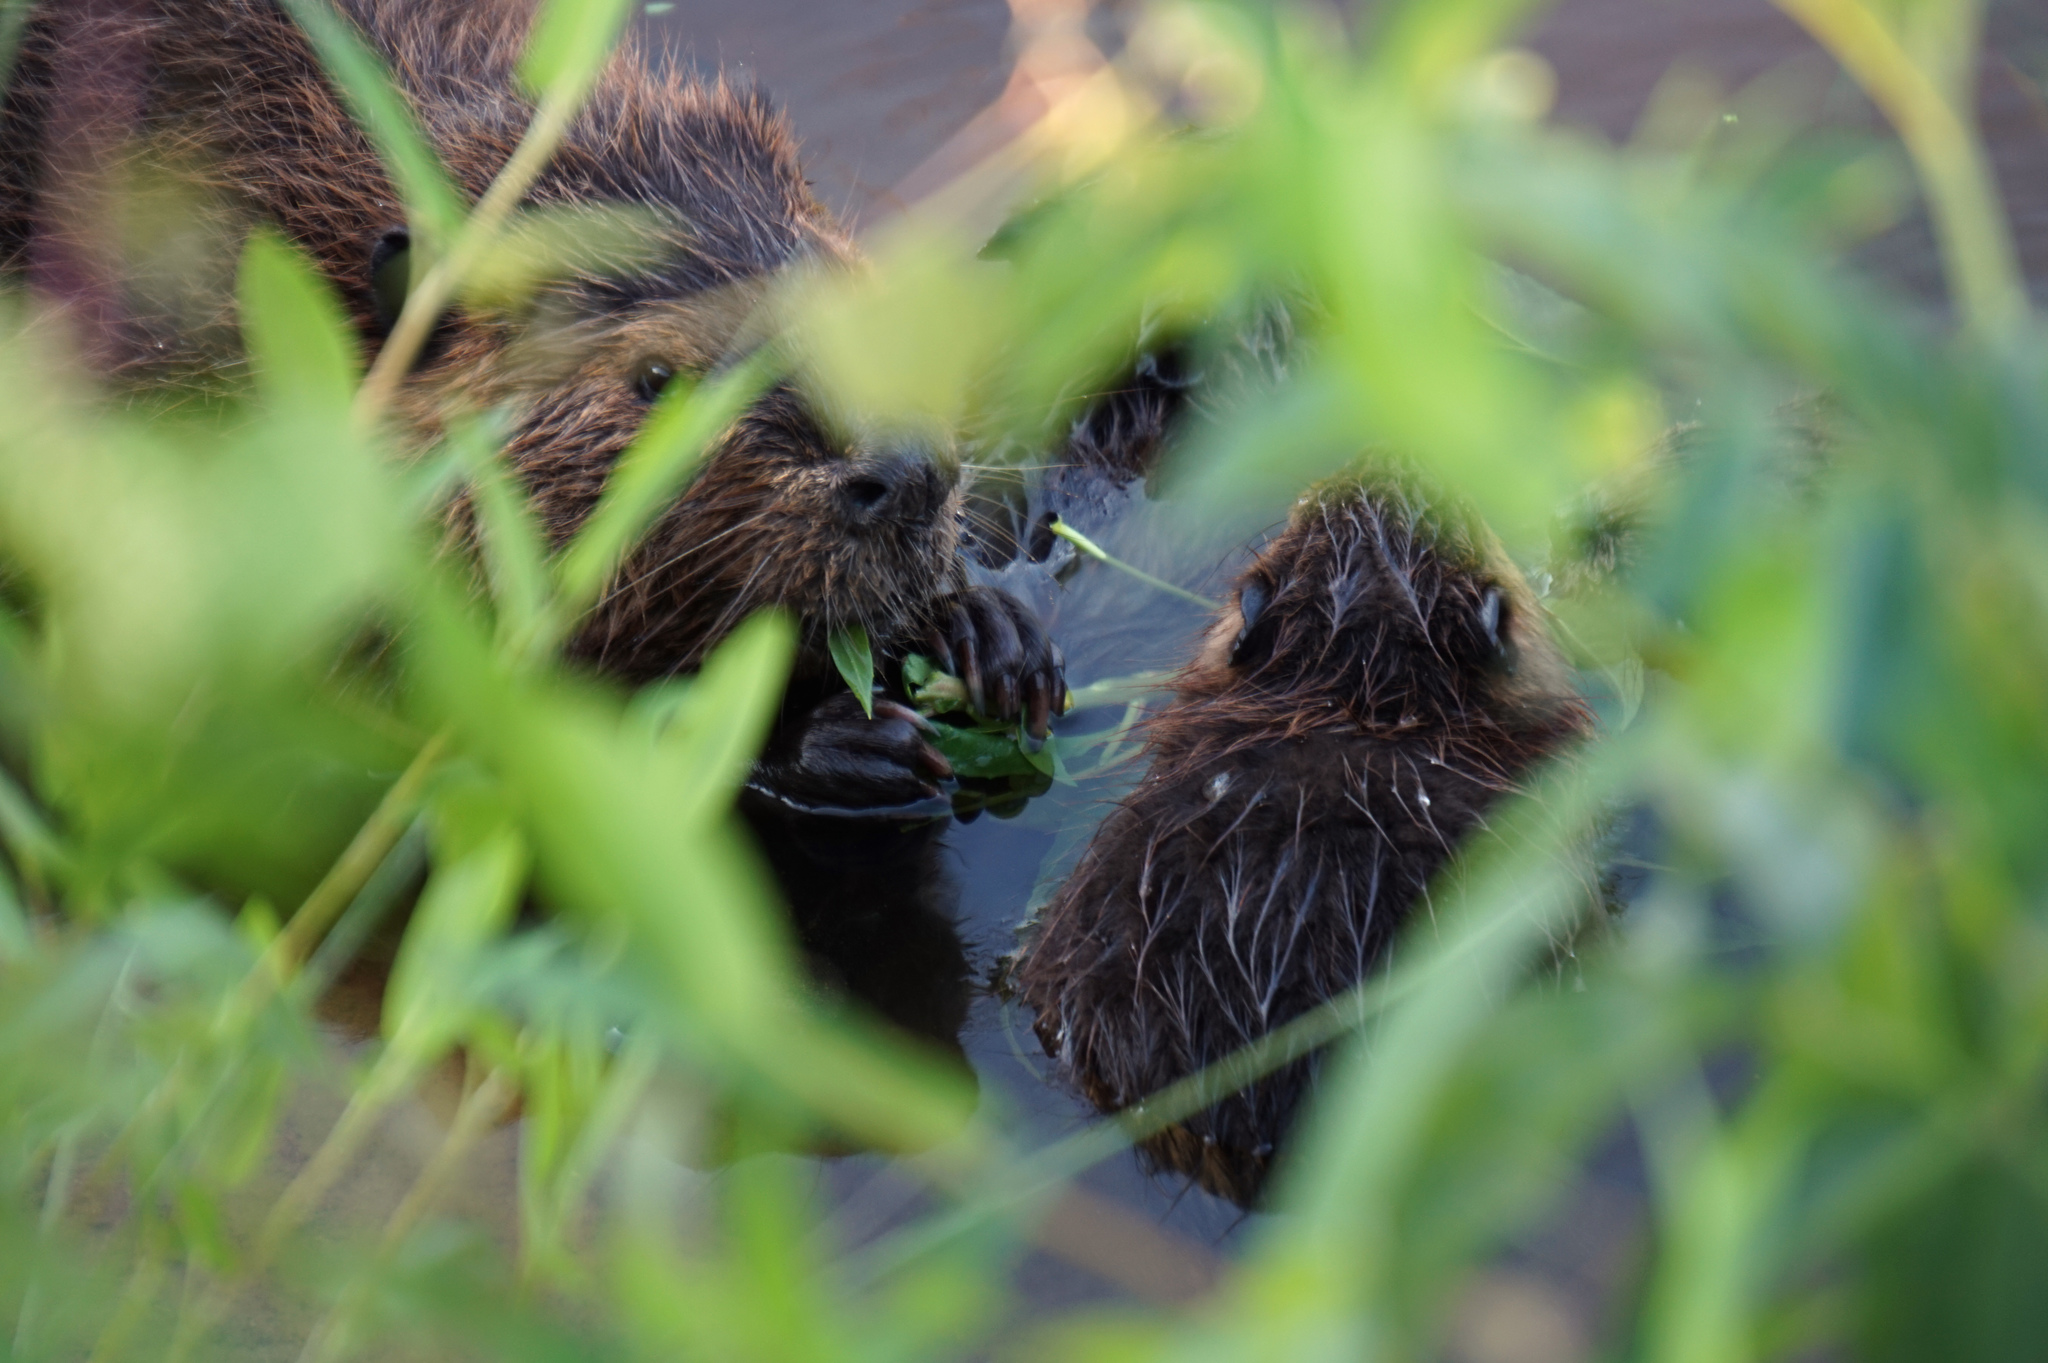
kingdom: Animalia
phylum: Chordata
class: Mammalia
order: Rodentia
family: Castoridae
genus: Castor
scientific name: Castor canadensis
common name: American beaver
